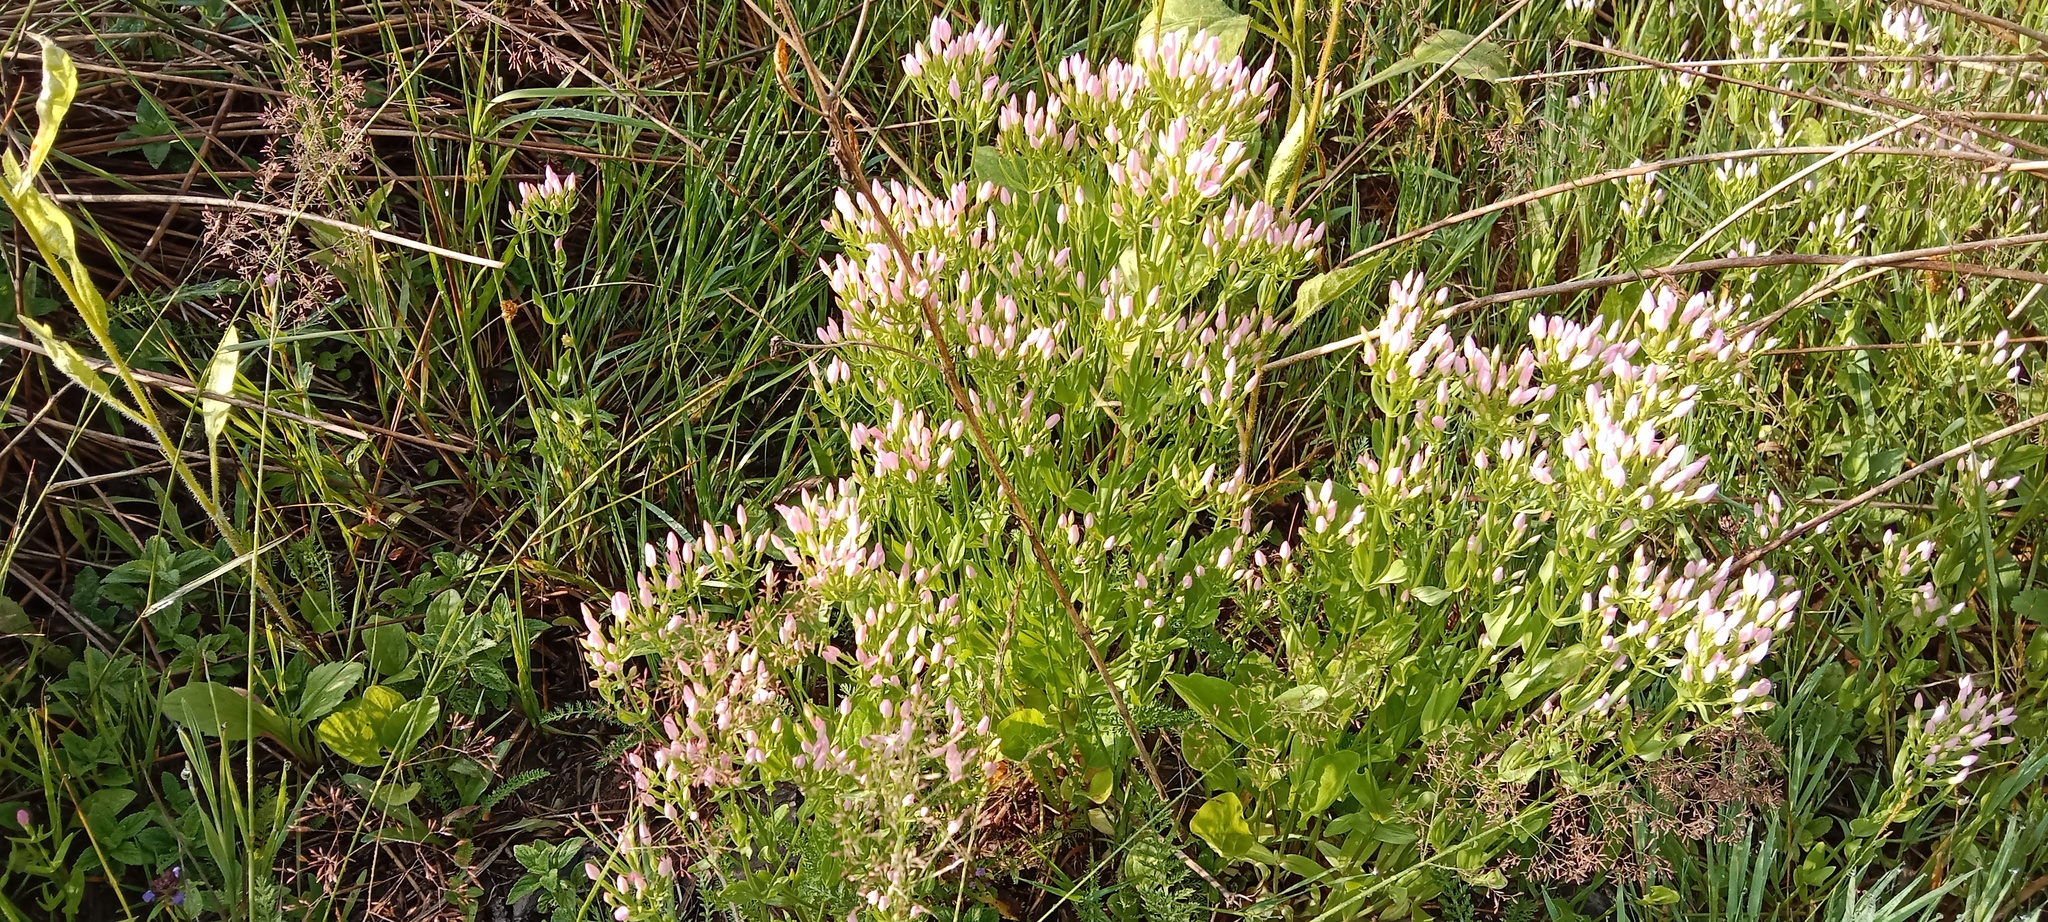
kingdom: Plantae
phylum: Tracheophyta
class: Magnoliopsida
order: Gentianales
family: Gentianaceae
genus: Centaurium
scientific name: Centaurium erythraea
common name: Common centaury
